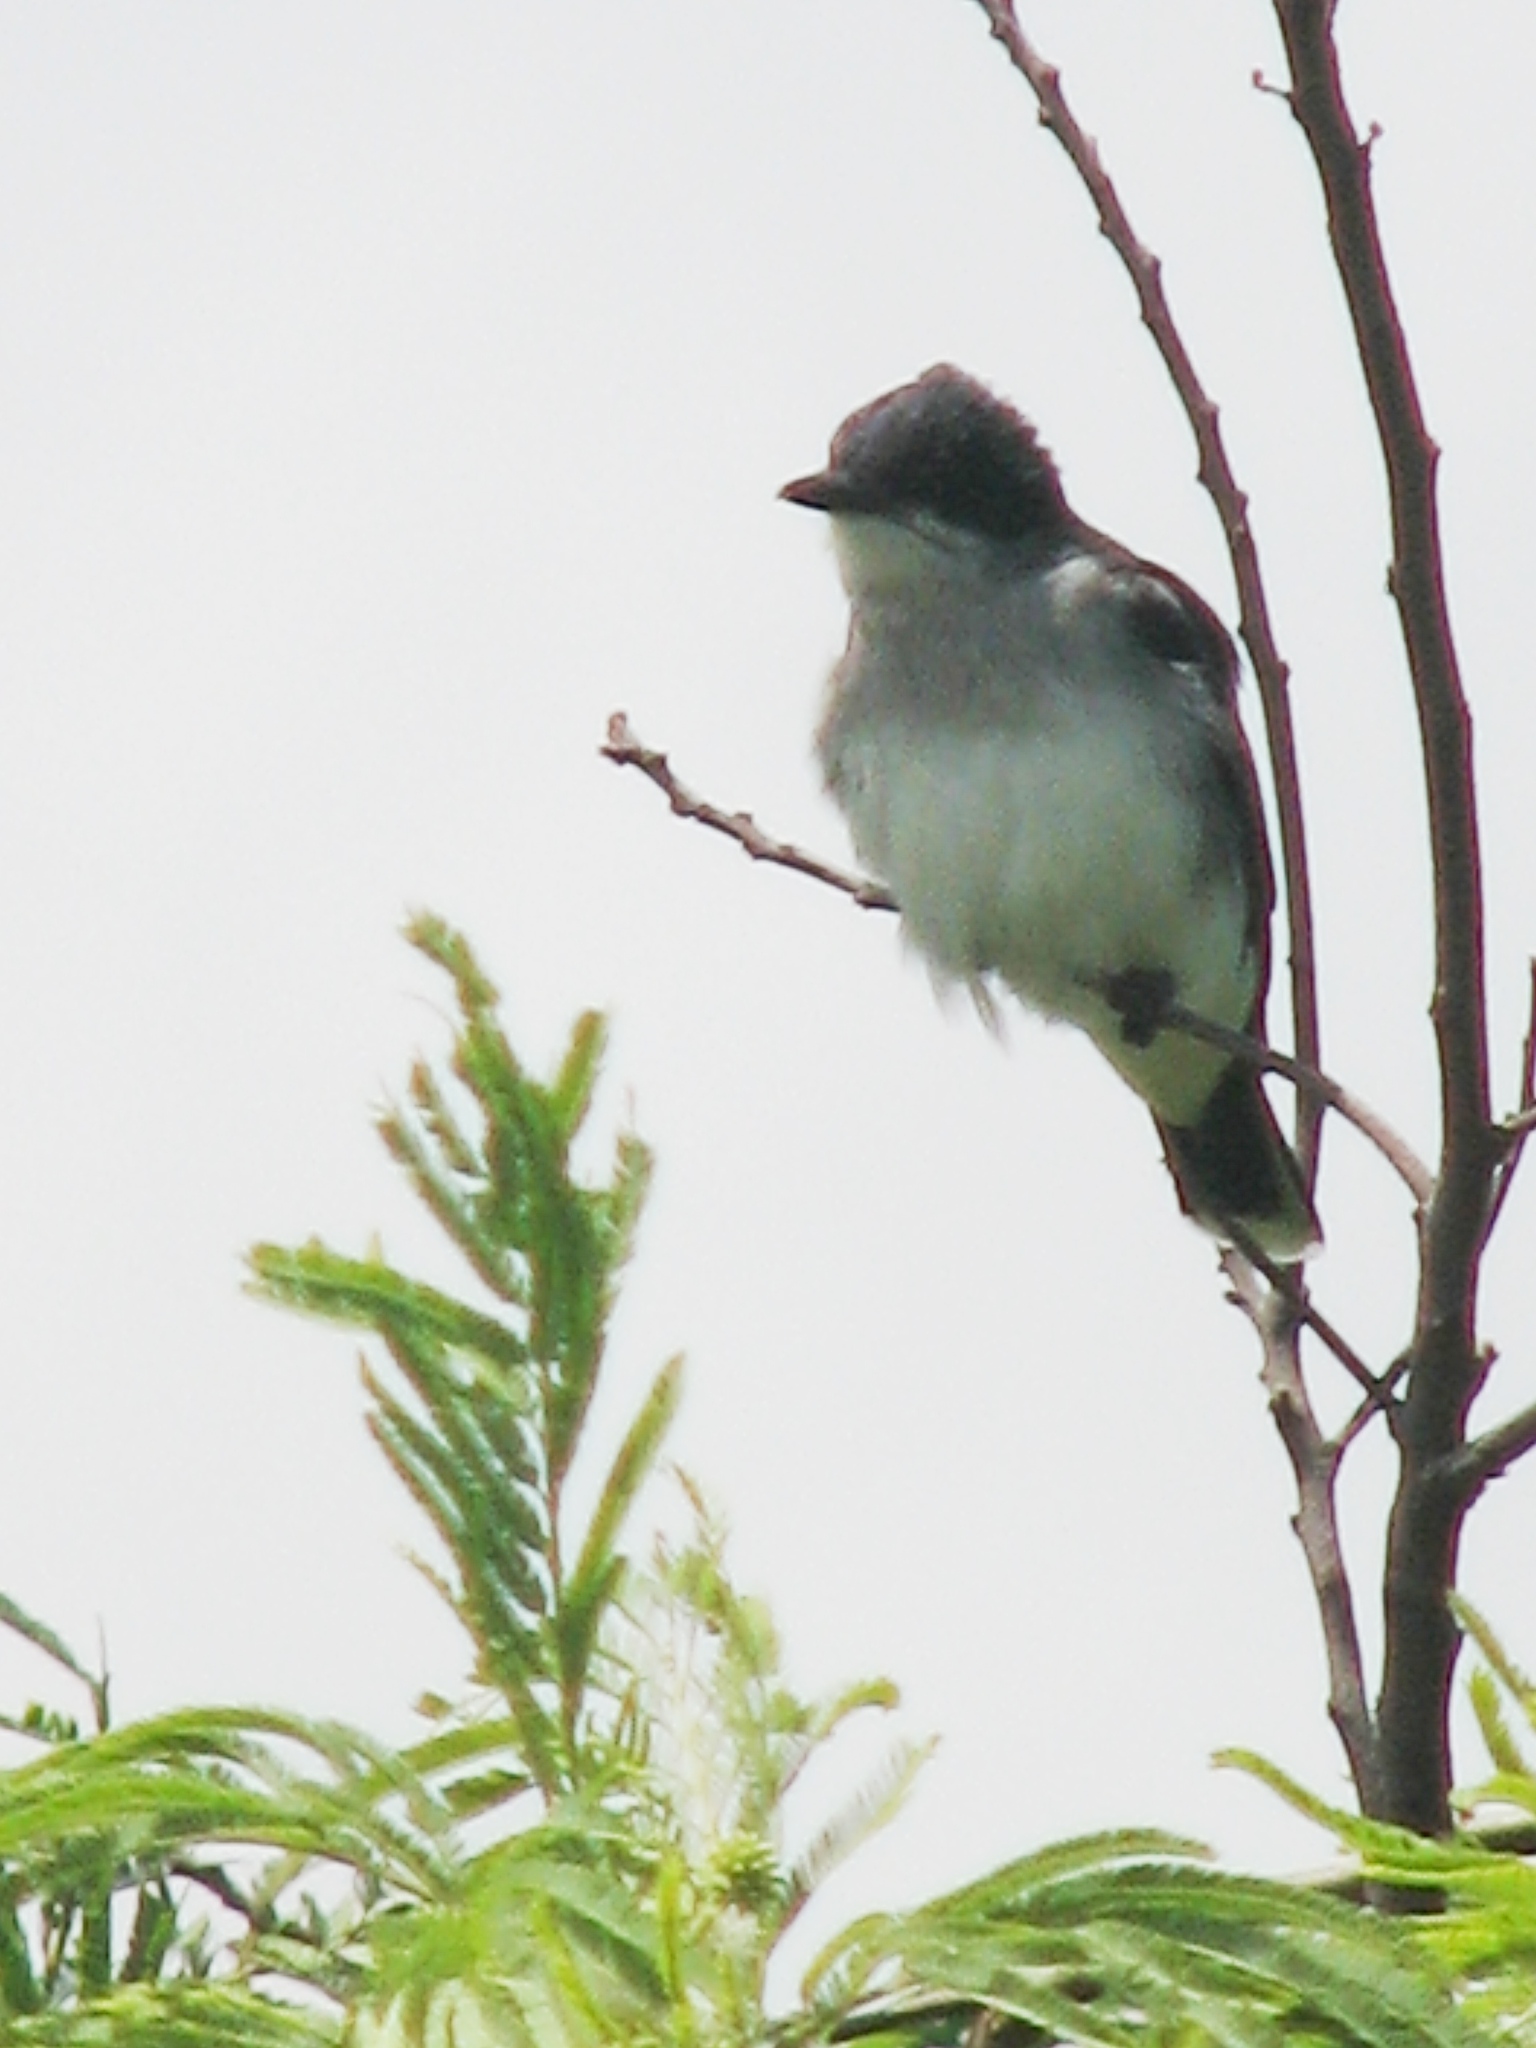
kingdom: Animalia
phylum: Chordata
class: Aves
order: Passeriformes
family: Tyrannidae
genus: Tyrannus
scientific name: Tyrannus tyrannus
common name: Eastern kingbird
